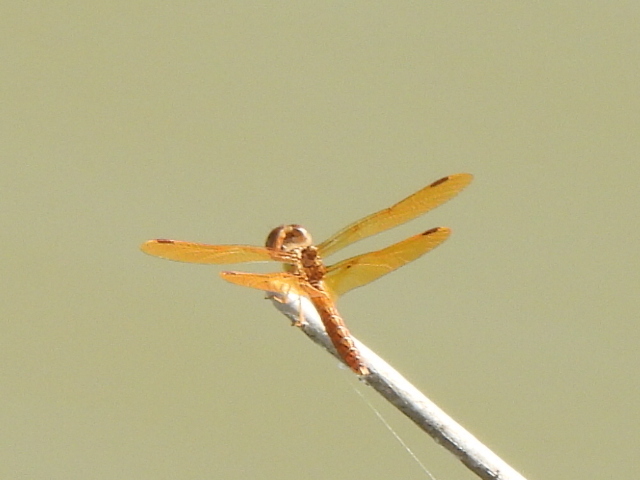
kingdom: Animalia
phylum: Arthropoda
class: Insecta
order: Odonata
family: Libellulidae
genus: Perithemis
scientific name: Perithemis tenera
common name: Eastern amberwing
